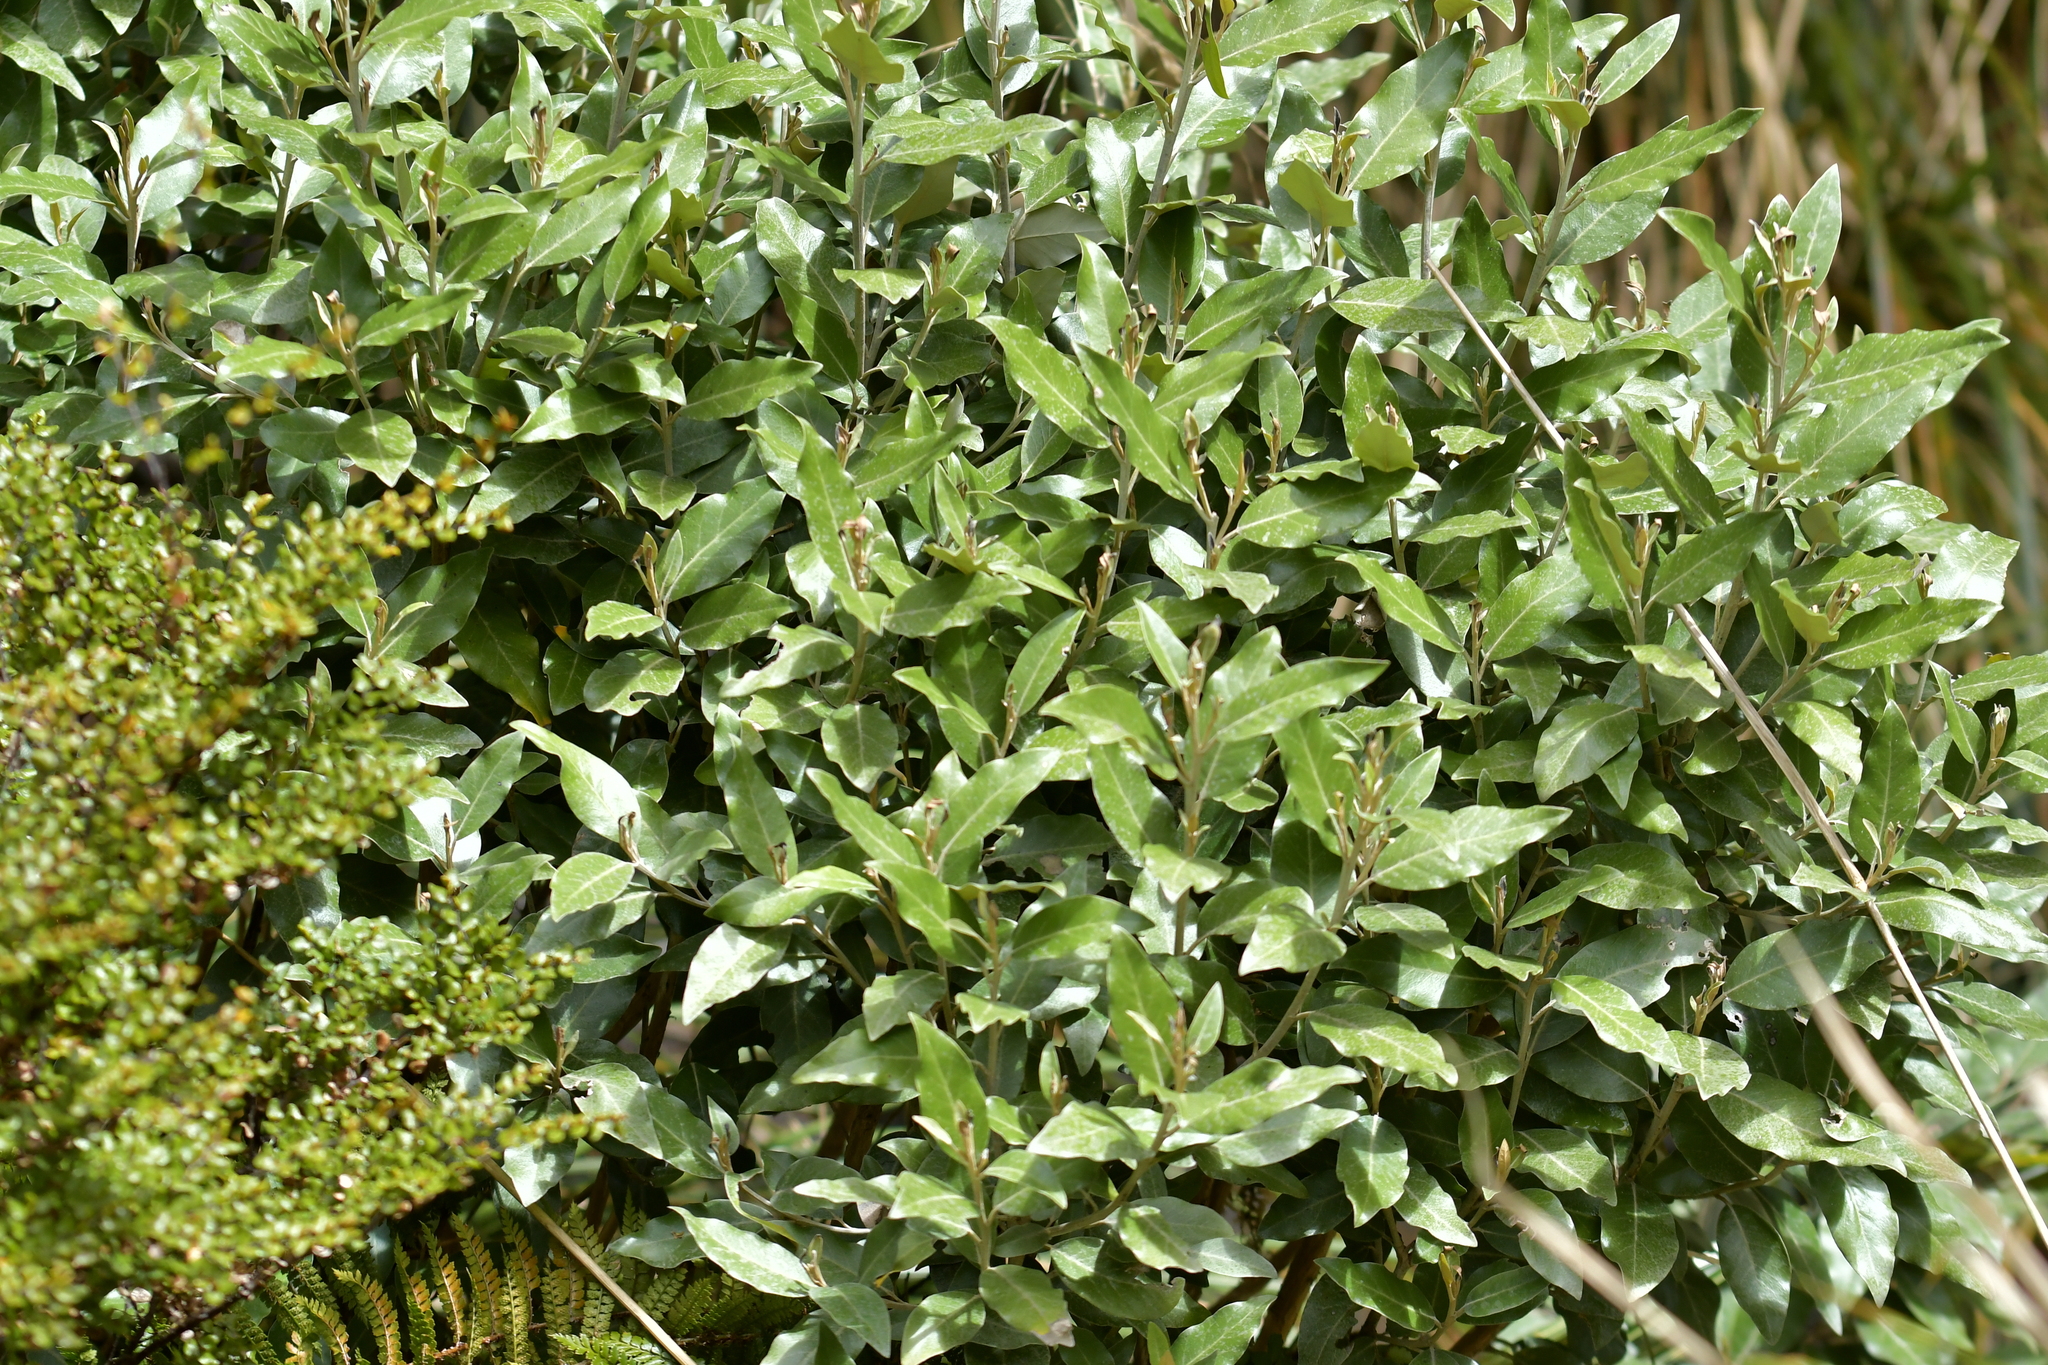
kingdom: Plantae
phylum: Tracheophyta
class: Magnoliopsida
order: Asterales
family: Asteraceae
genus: Olearia
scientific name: Olearia avicenniifolia
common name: Mangrove-leaf daisybush
